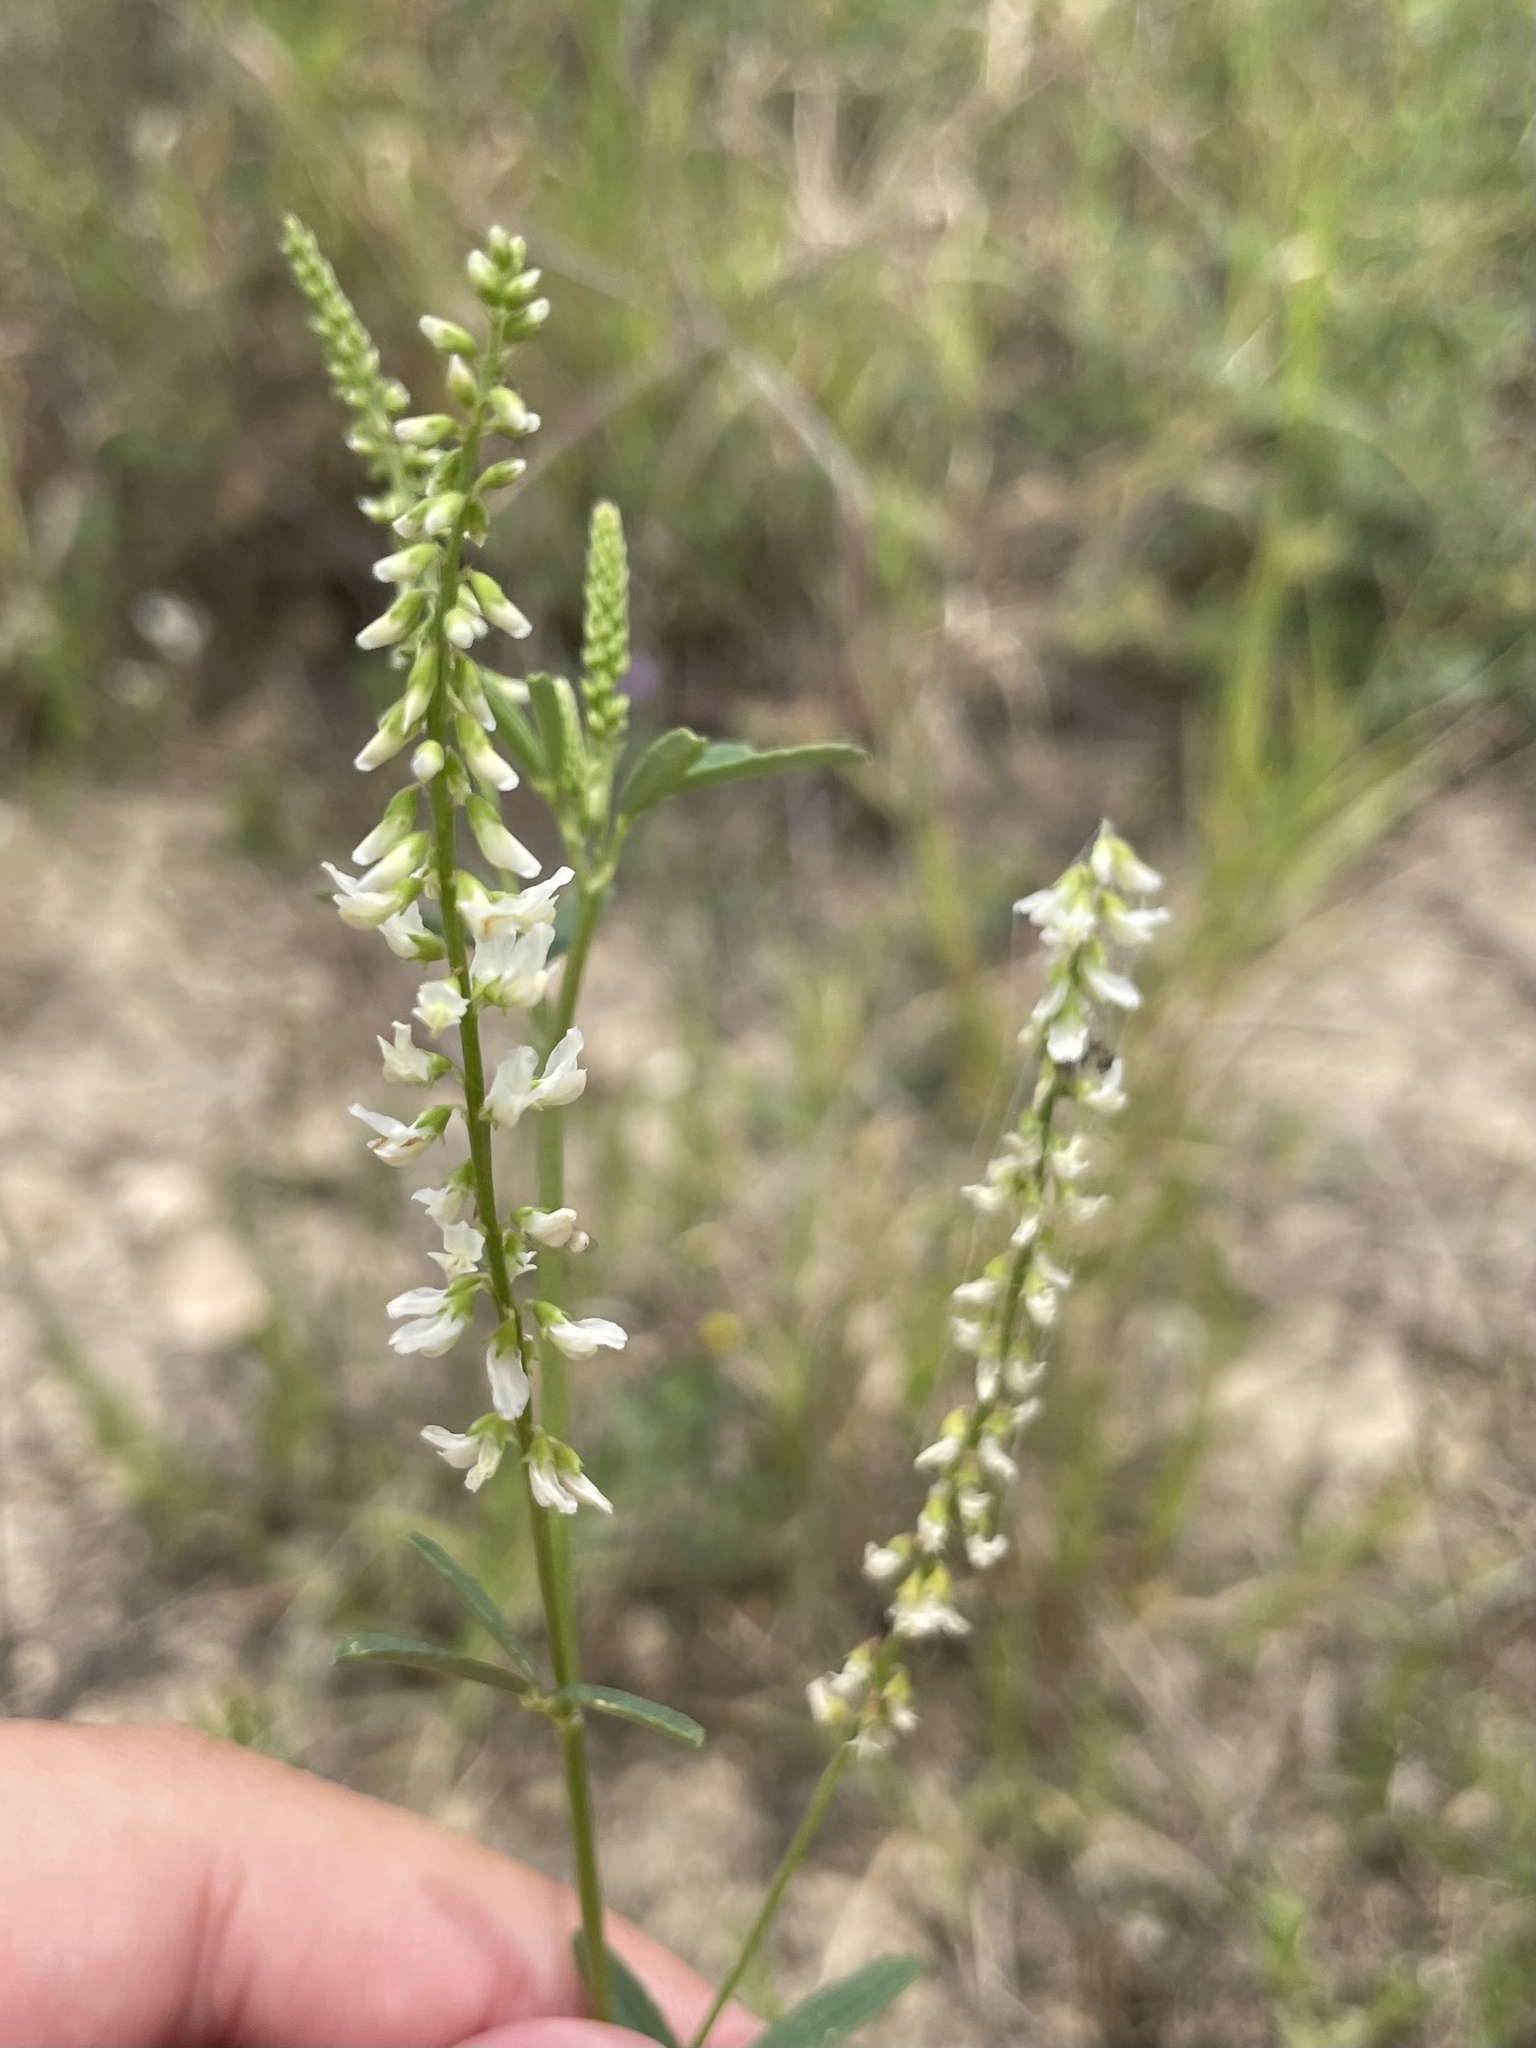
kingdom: Plantae
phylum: Tracheophyta
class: Magnoliopsida
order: Fabales
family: Fabaceae
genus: Melilotus
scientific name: Melilotus albus
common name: White melilot
